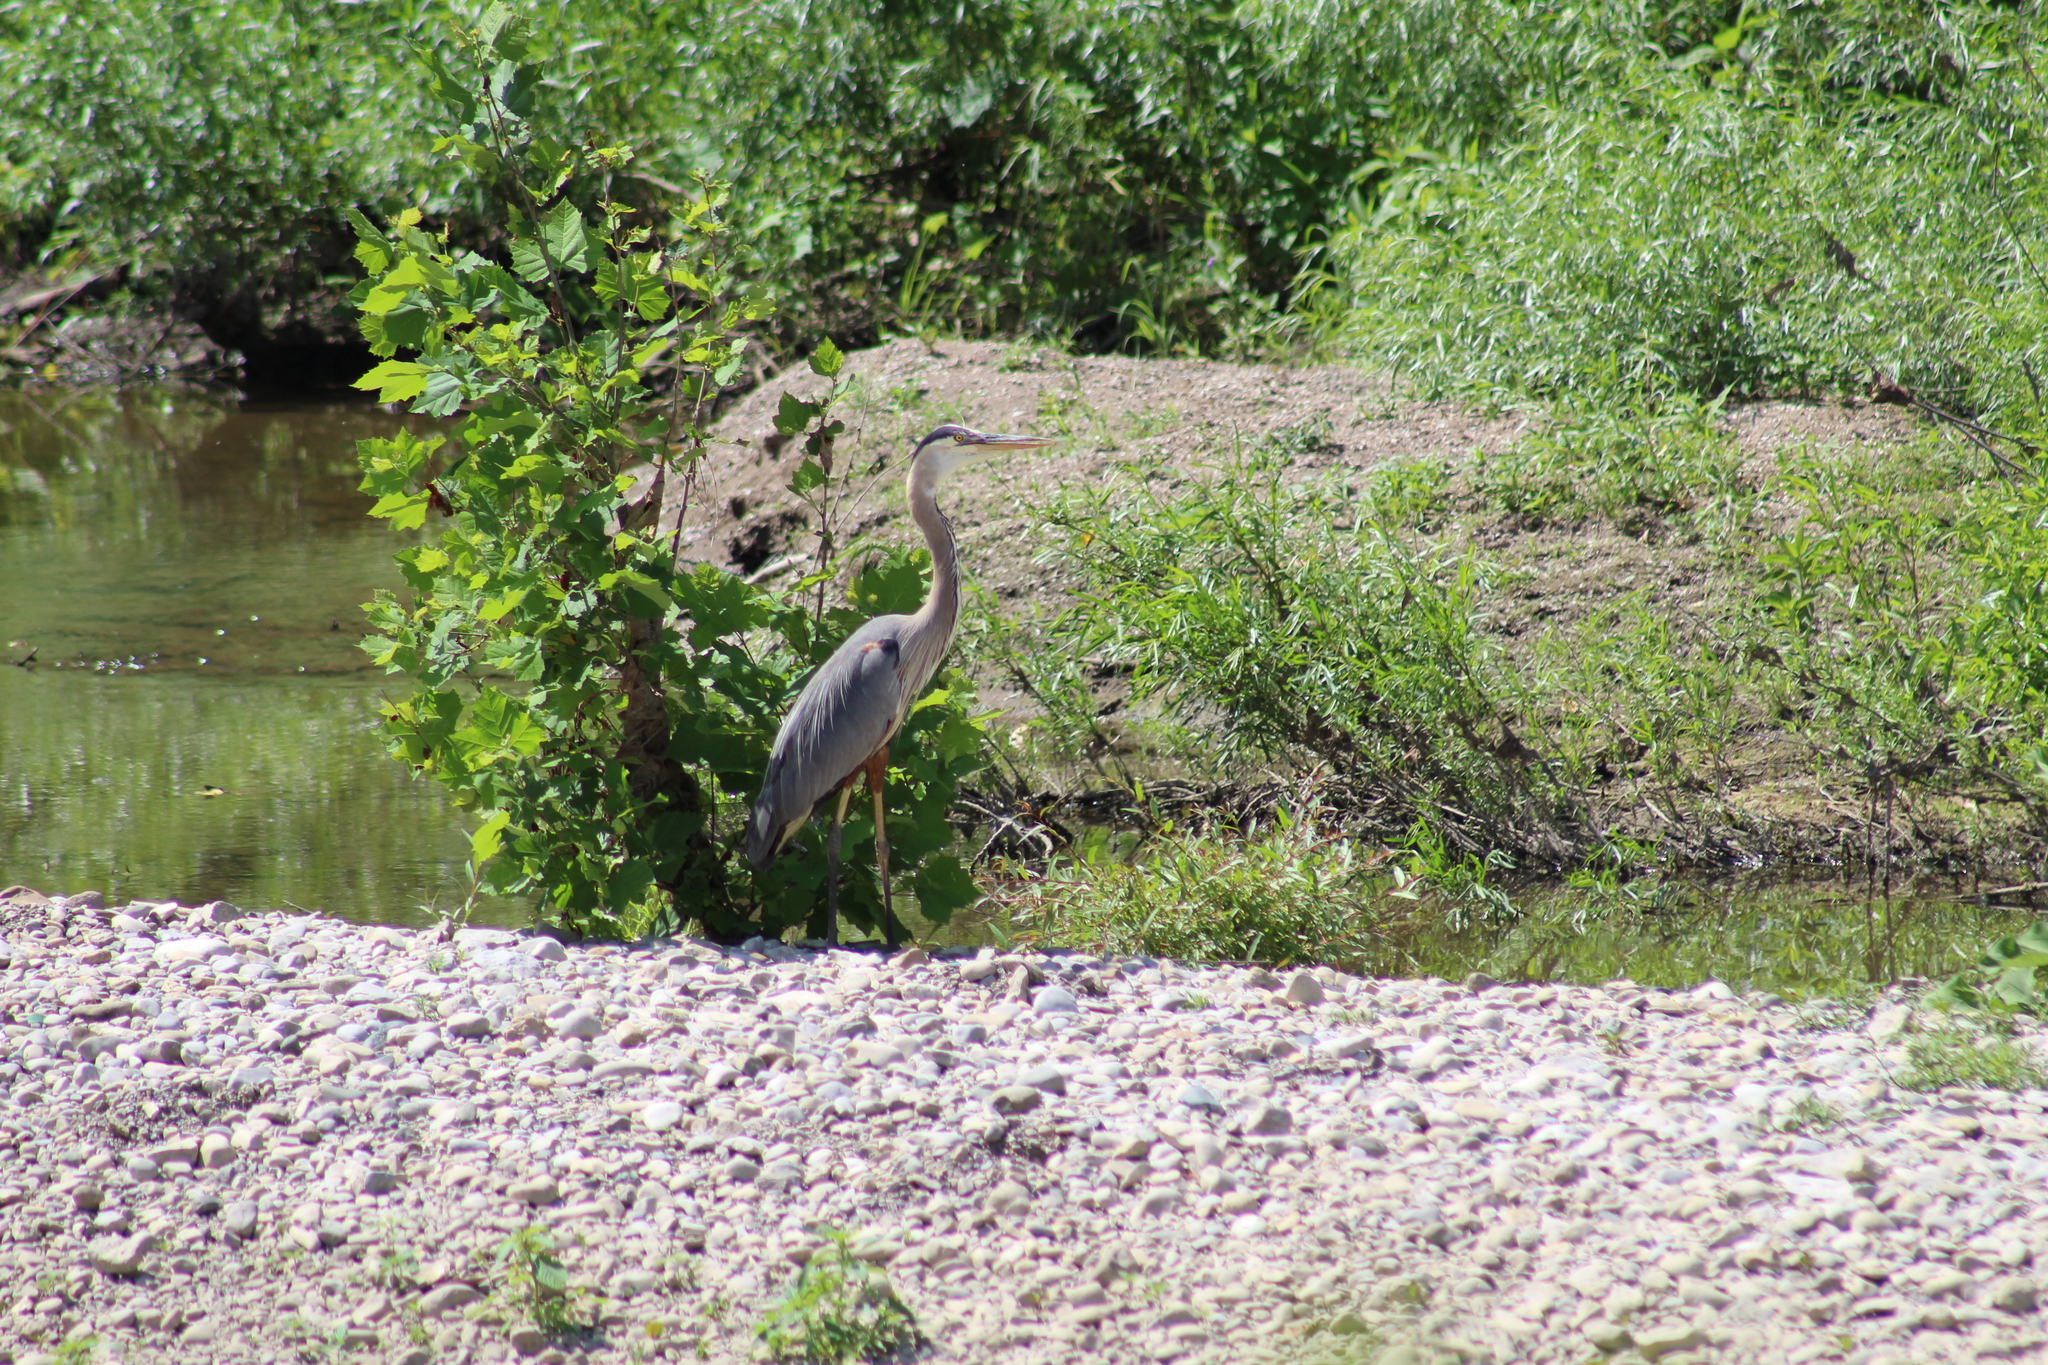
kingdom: Animalia
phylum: Chordata
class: Aves
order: Pelecaniformes
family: Ardeidae
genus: Ardea
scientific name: Ardea herodias
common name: Great blue heron
